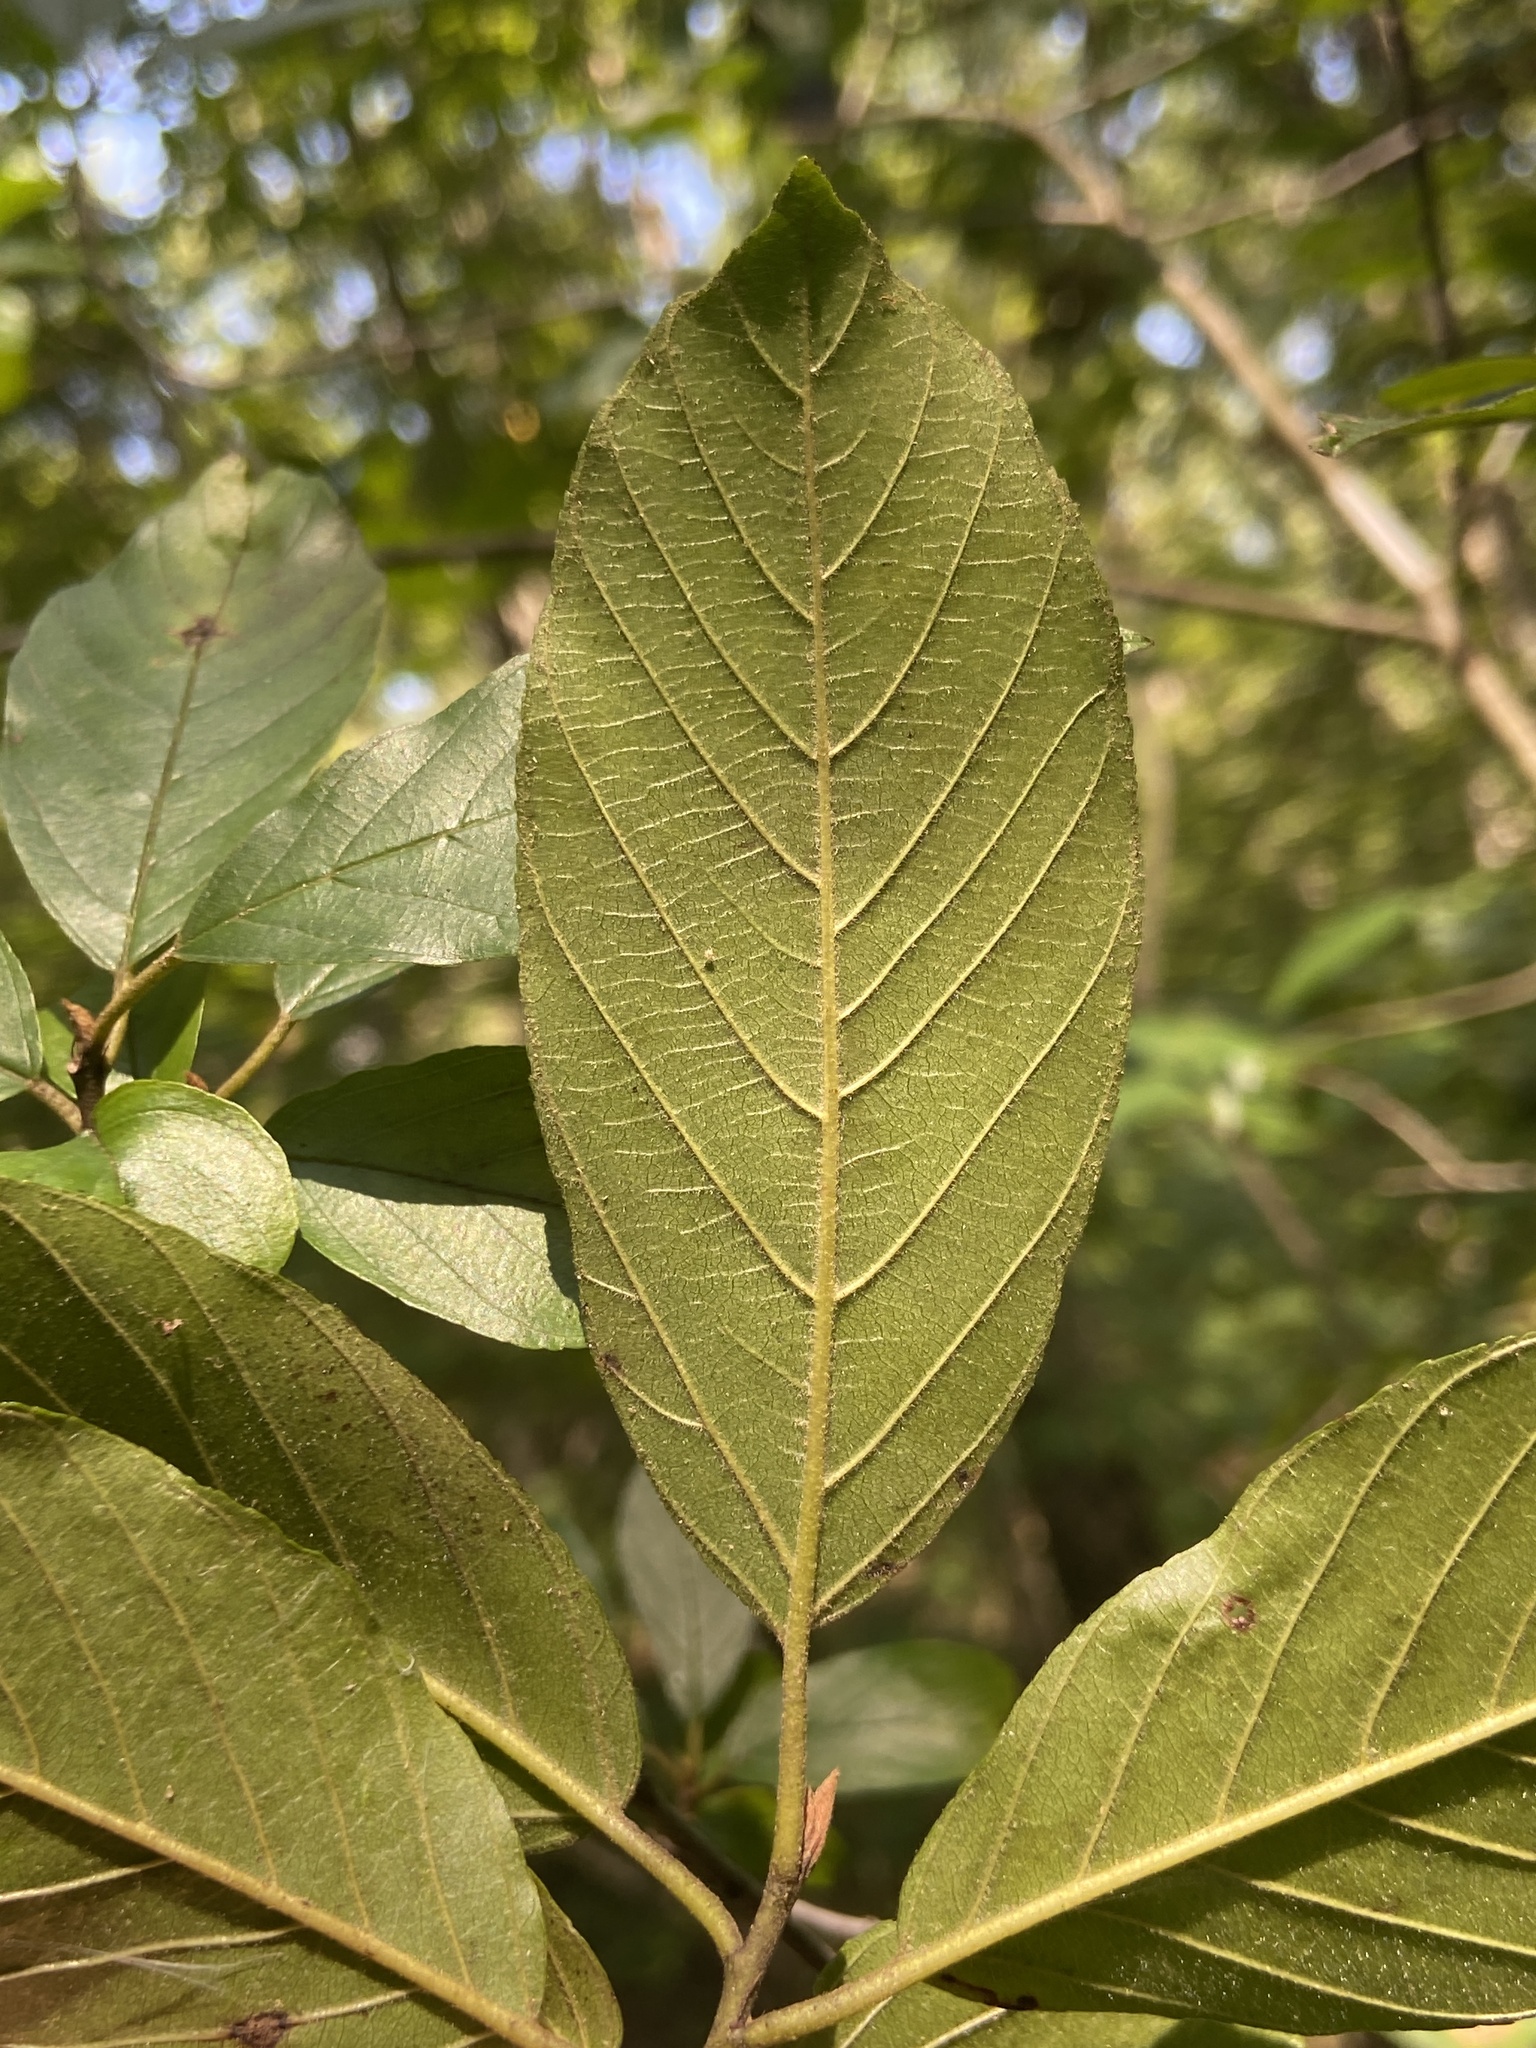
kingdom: Plantae
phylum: Tracheophyta
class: Magnoliopsida
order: Rosales
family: Rhamnaceae
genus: Frangula
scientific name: Frangula caroliniana
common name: Carolina buckthorn
